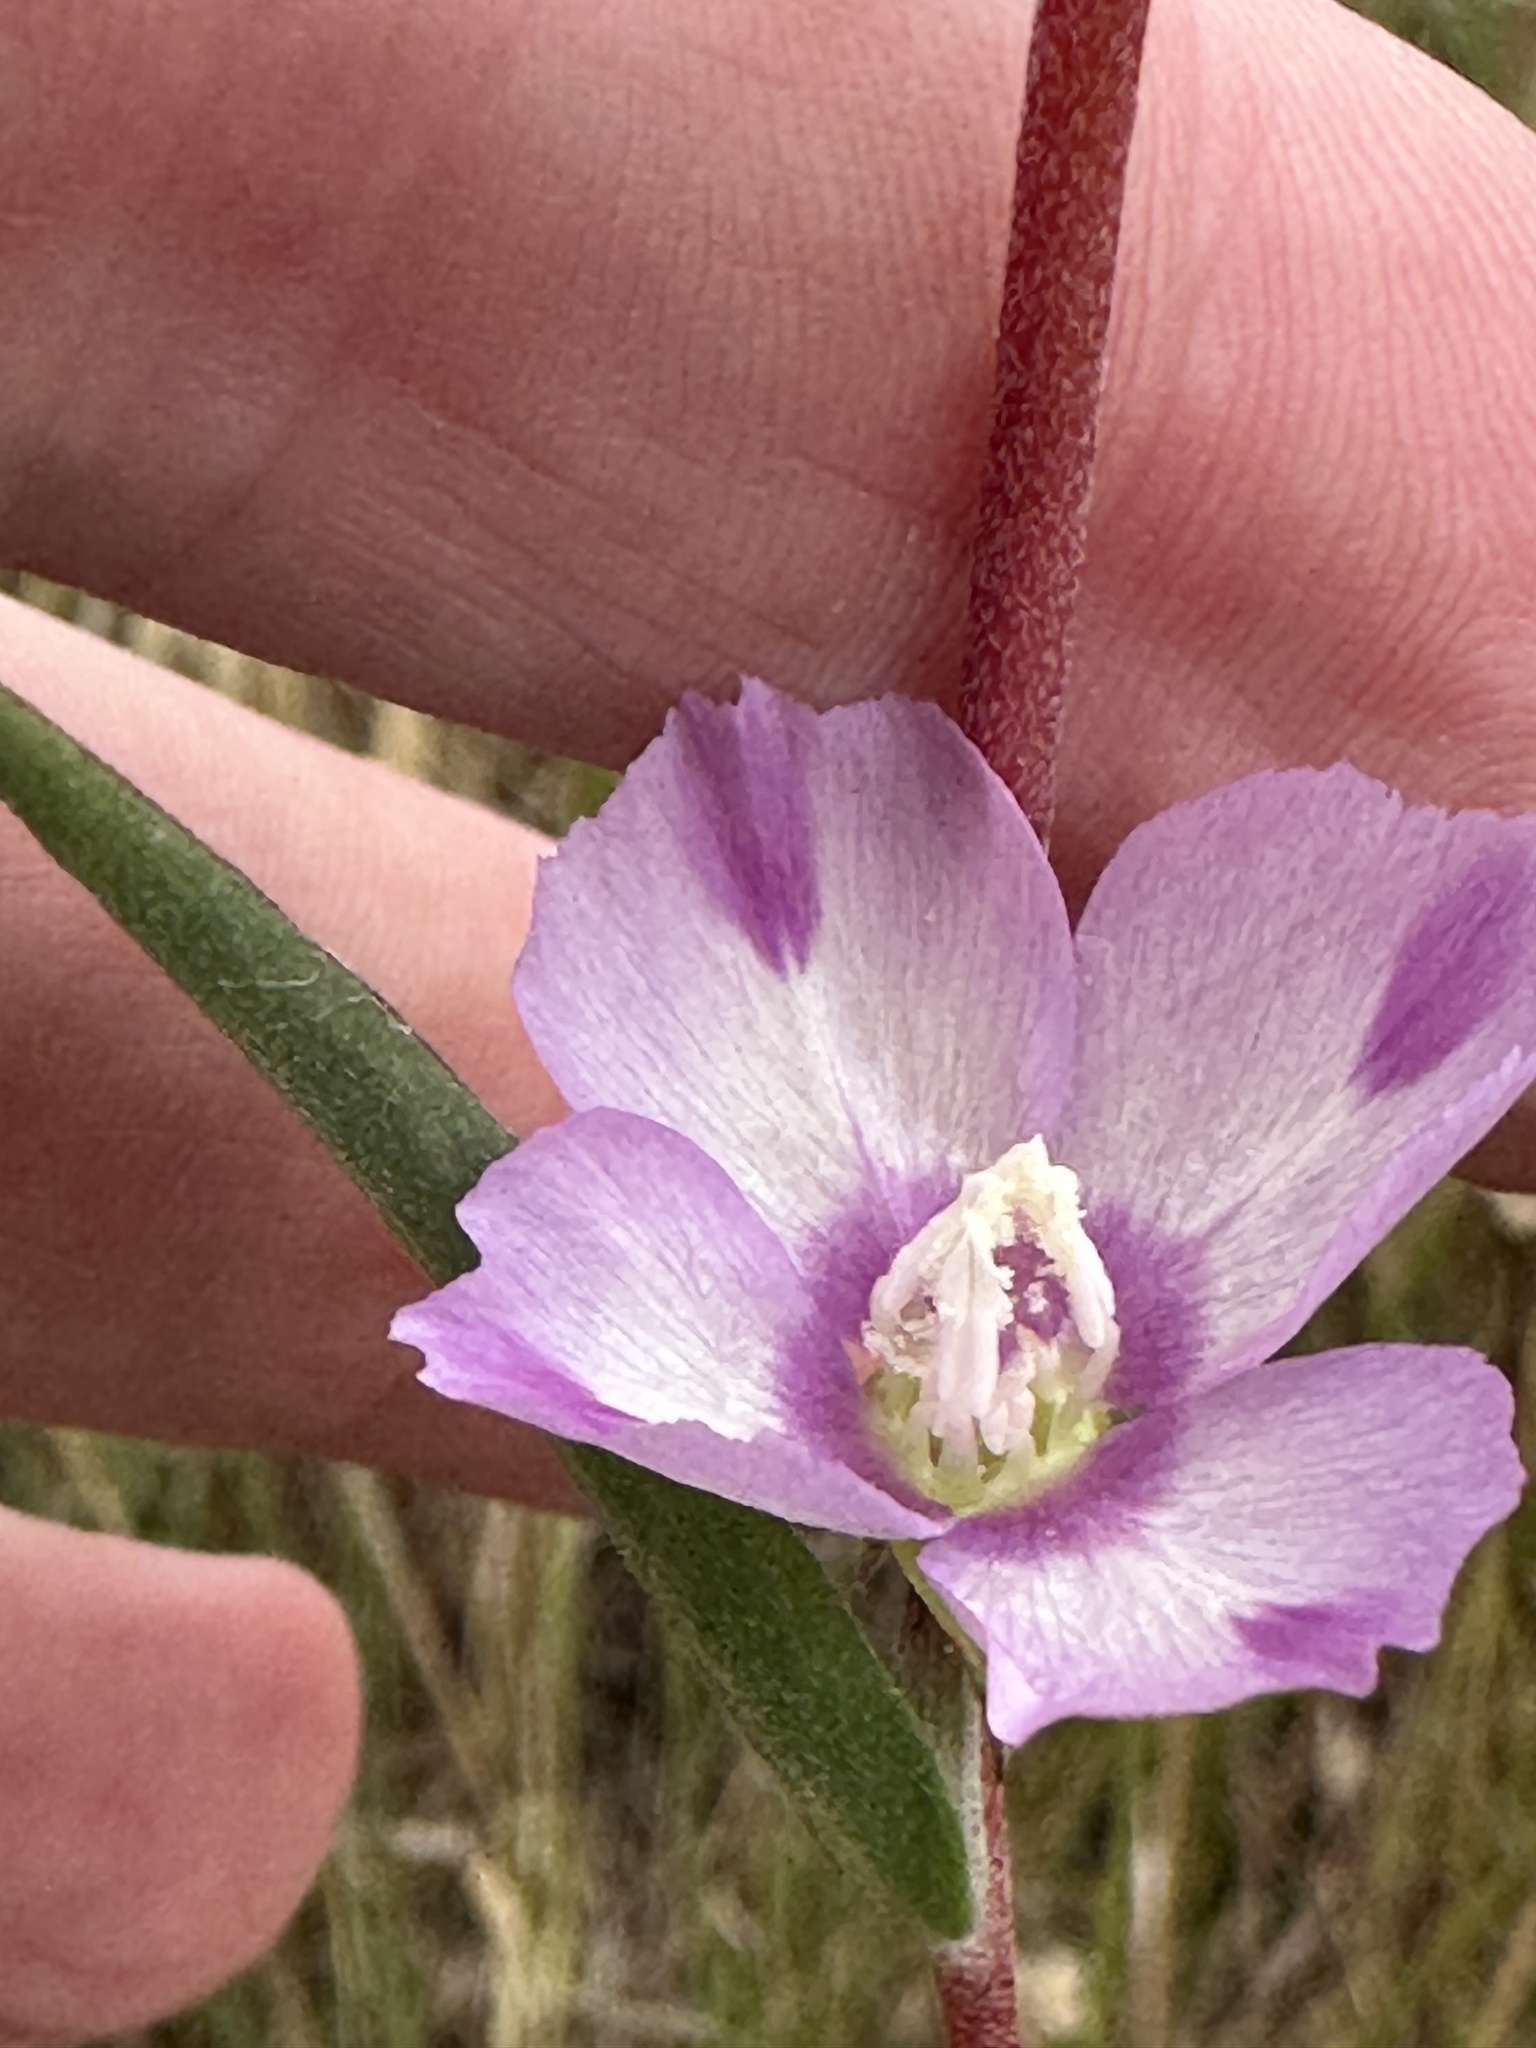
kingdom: Plantae
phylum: Tracheophyta
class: Magnoliopsida
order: Myrtales
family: Onagraceae
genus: Clarkia
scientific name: Clarkia purpurea
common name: Purple clarkia
